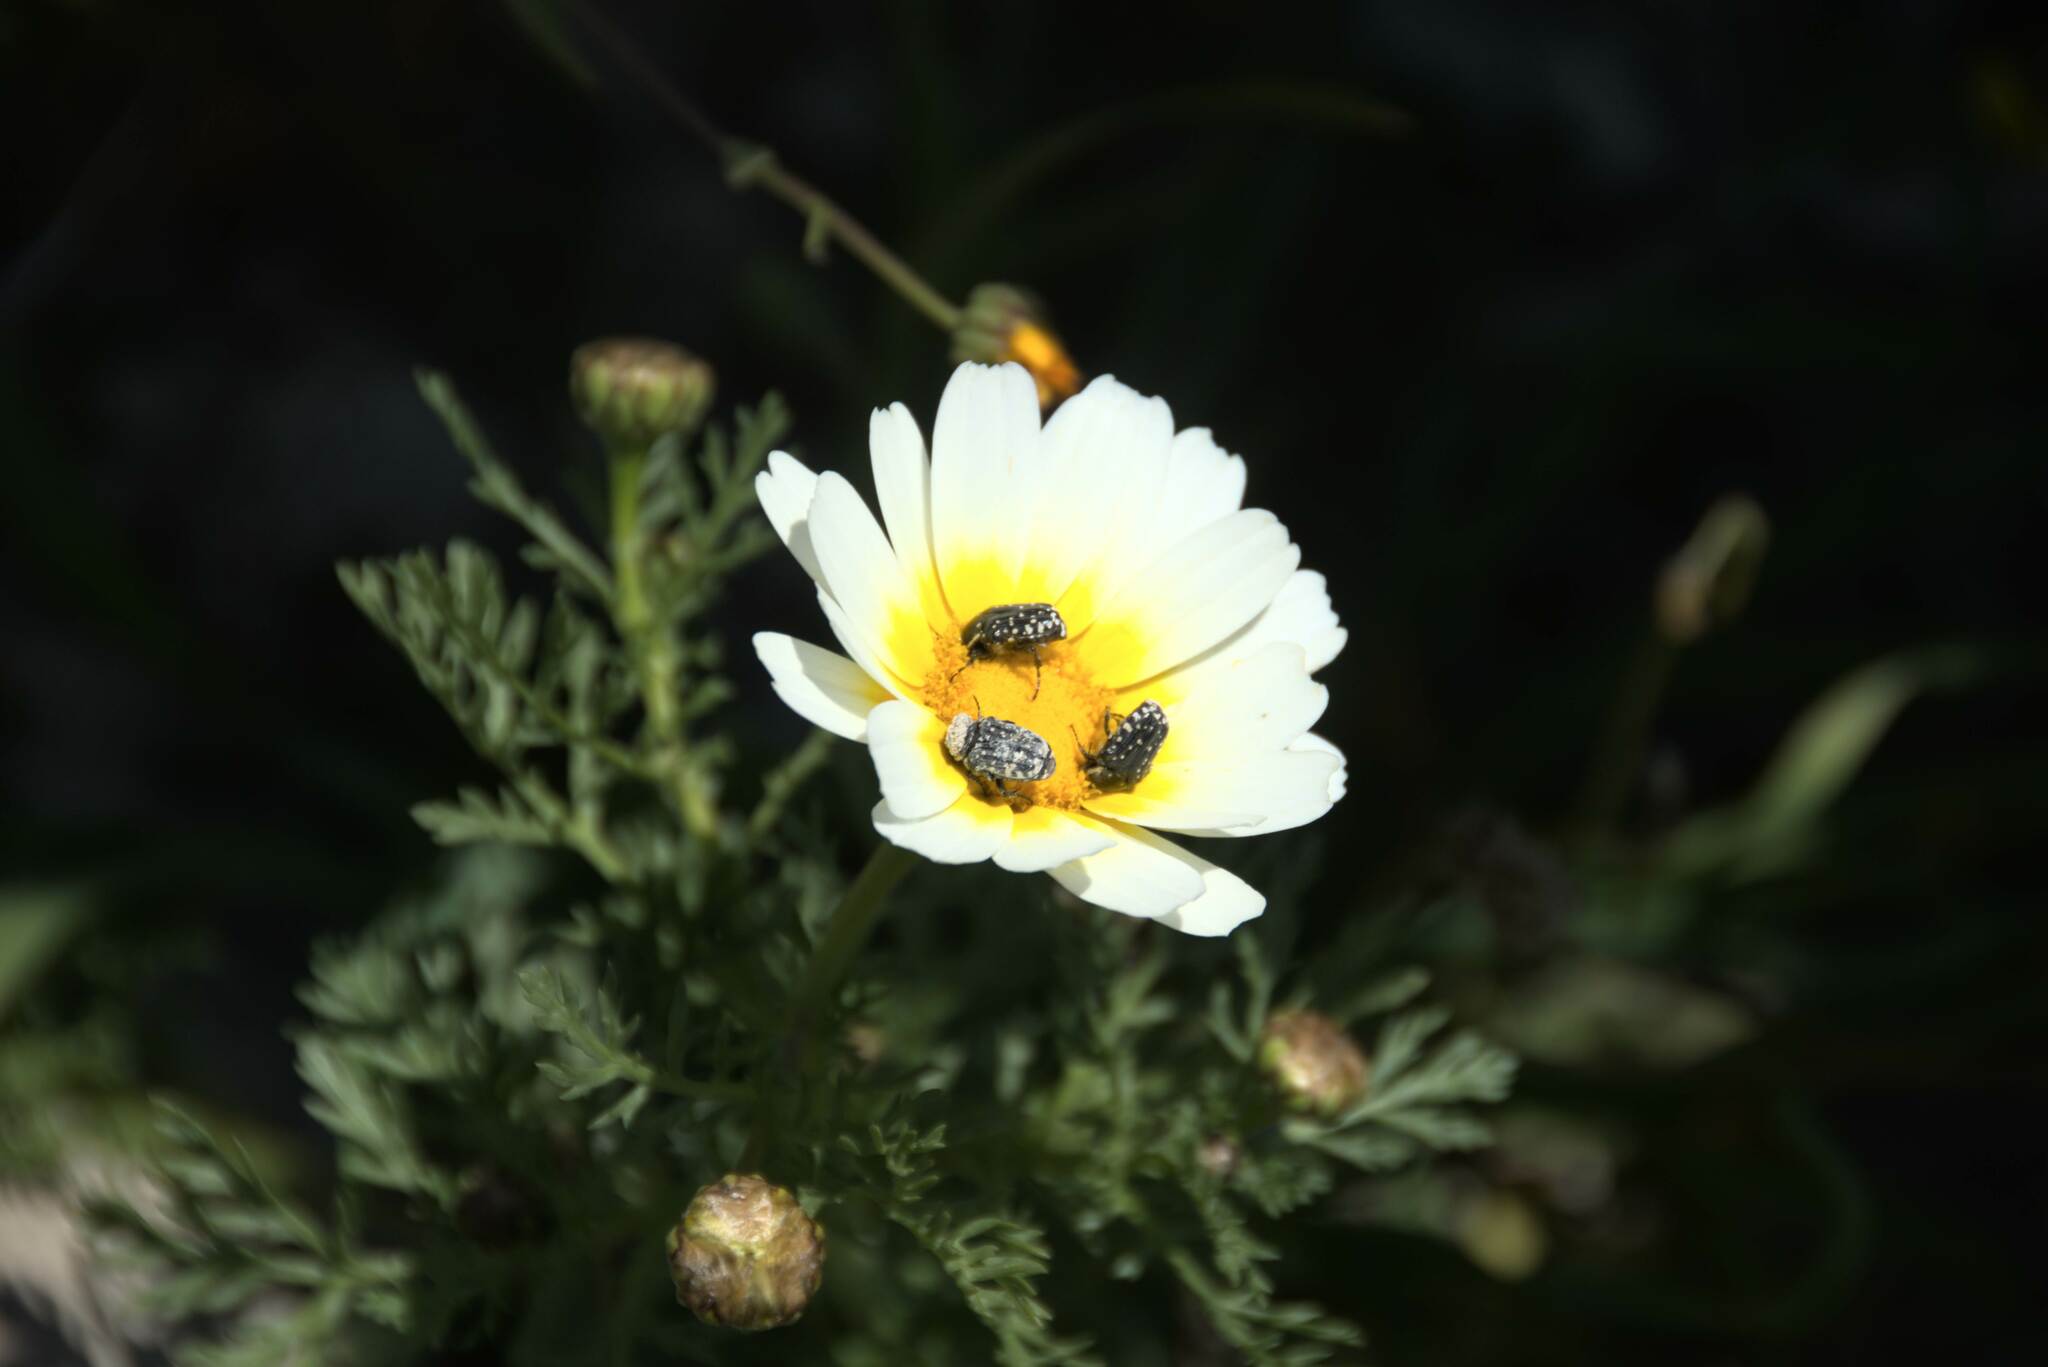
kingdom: Animalia
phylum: Arthropoda
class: Insecta
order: Coleoptera
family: Scarabaeidae
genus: Oxythyrea
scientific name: Oxythyrea cinctella
